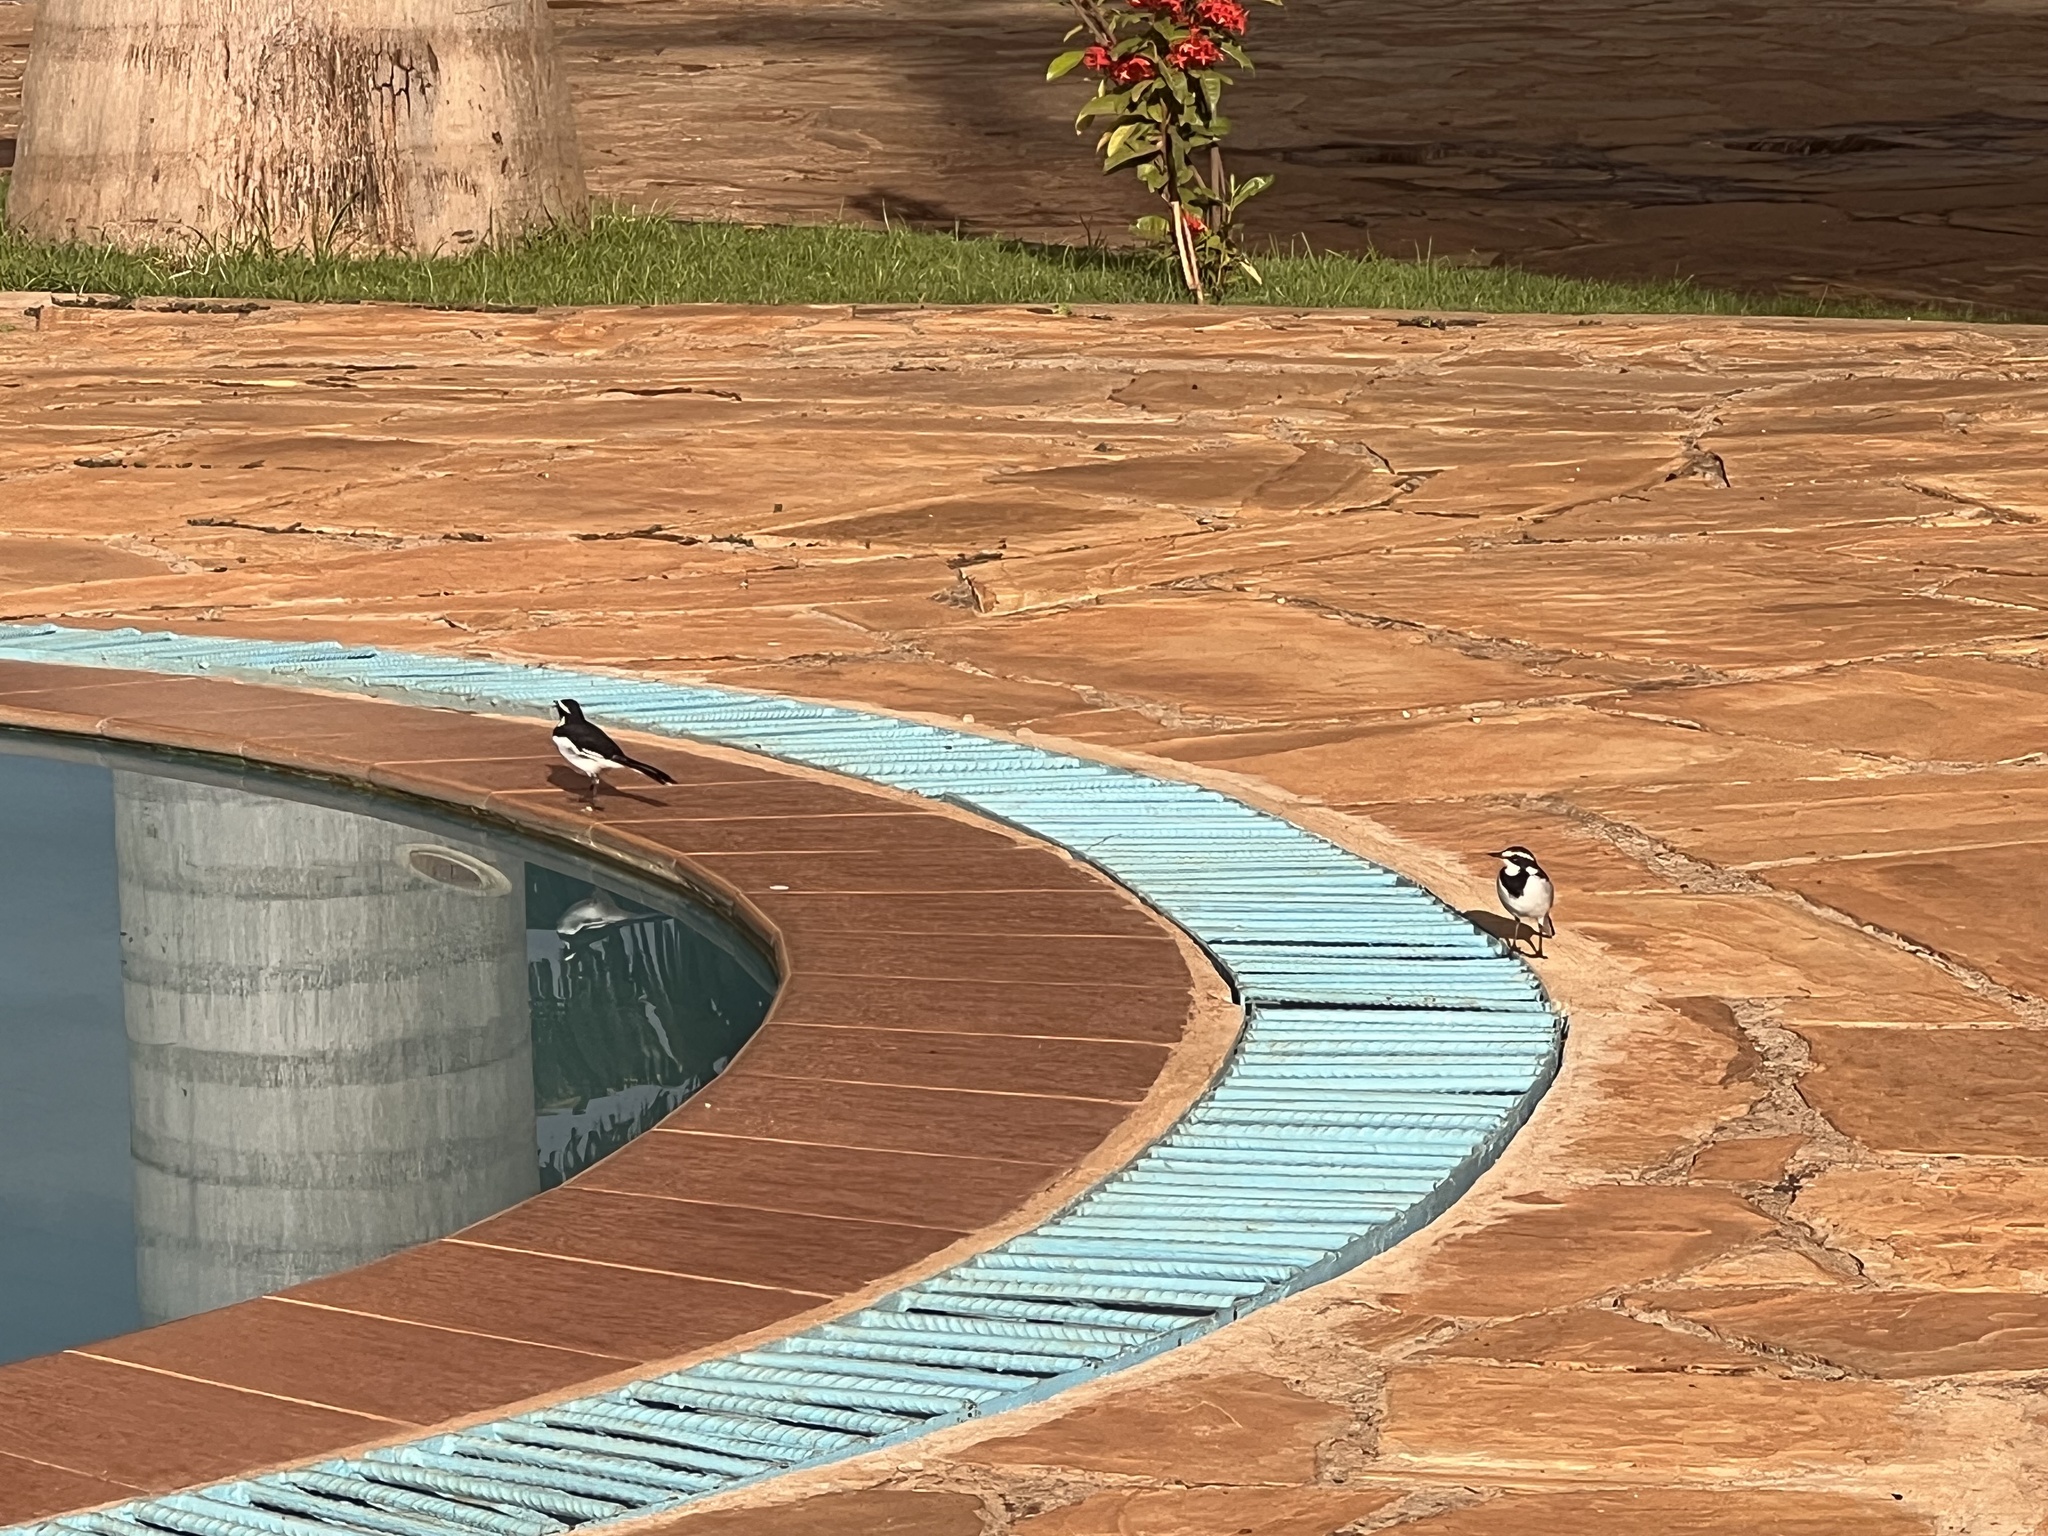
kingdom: Animalia
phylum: Chordata
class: Aves
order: Passeriformes
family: Motacillidae
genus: Motacilla
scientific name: Motacilla aguimp
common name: African pied wagtail
